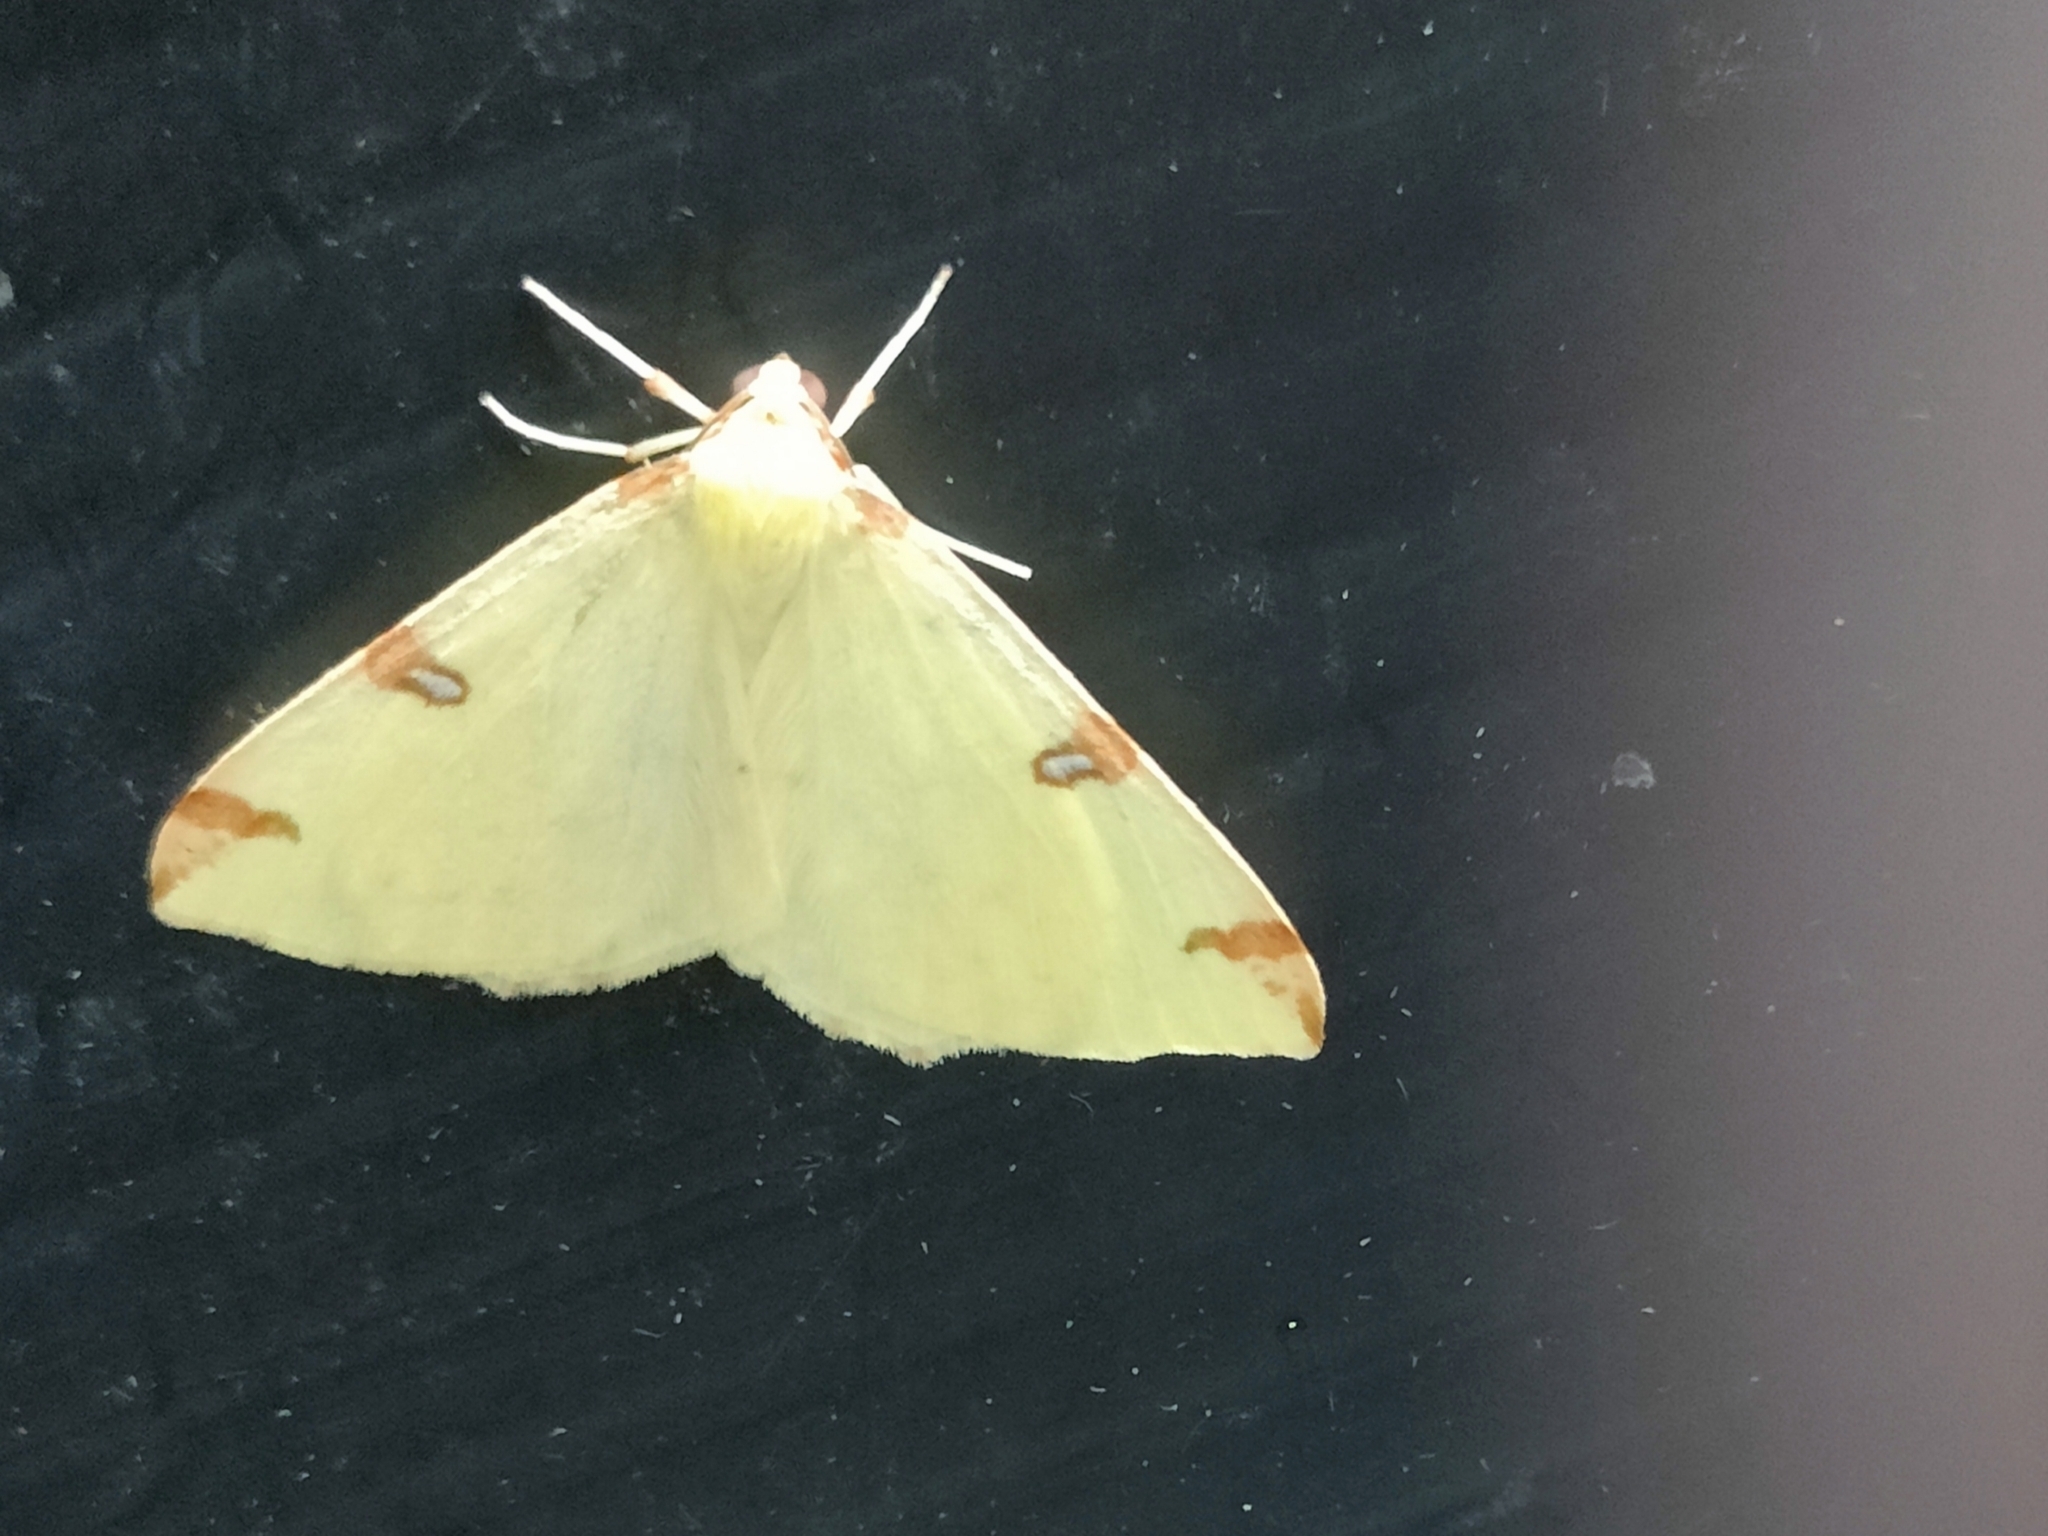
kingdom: Animalia
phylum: Arthropoda
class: Insecta
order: Lepidoptera
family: Geometridae
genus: Opisthograptis
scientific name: Opisthograptis luteolata
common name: Brimstone moth
